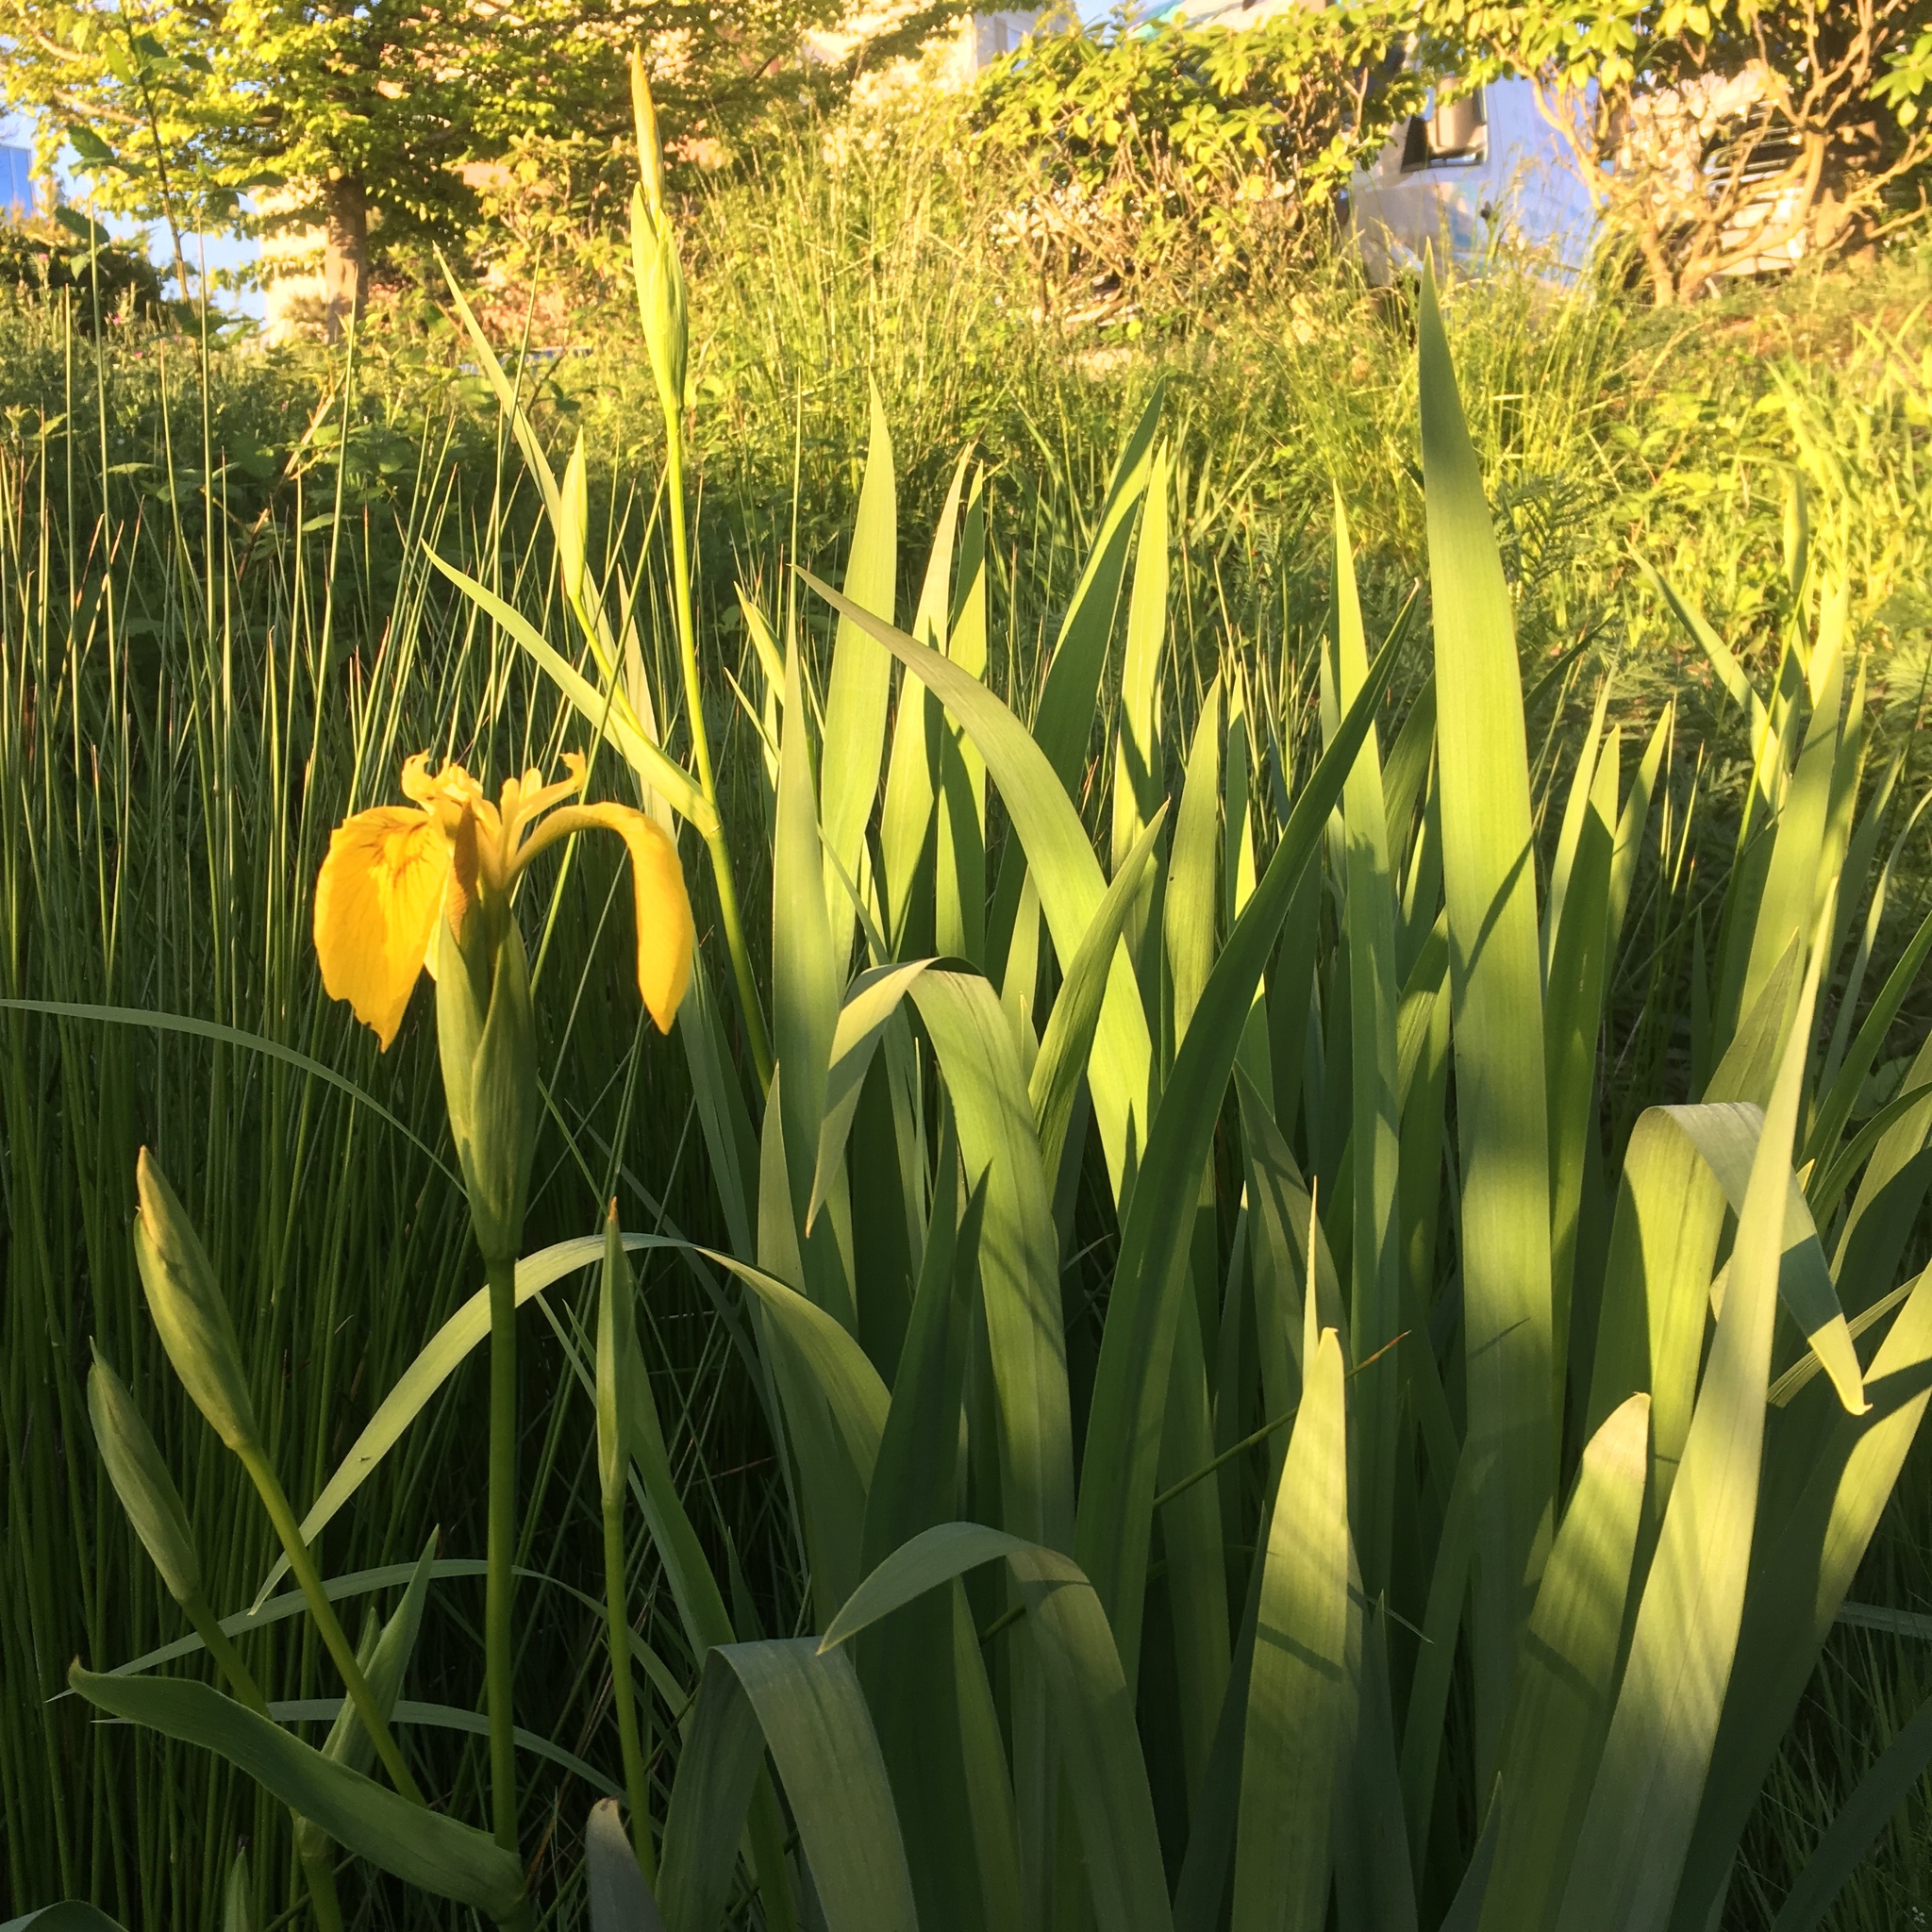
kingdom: Plantae
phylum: Tracheophyta
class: Liliopsida
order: Asparagales
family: Iridaceae
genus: Iris
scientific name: Iris pseudacorus
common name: Yellow flag
